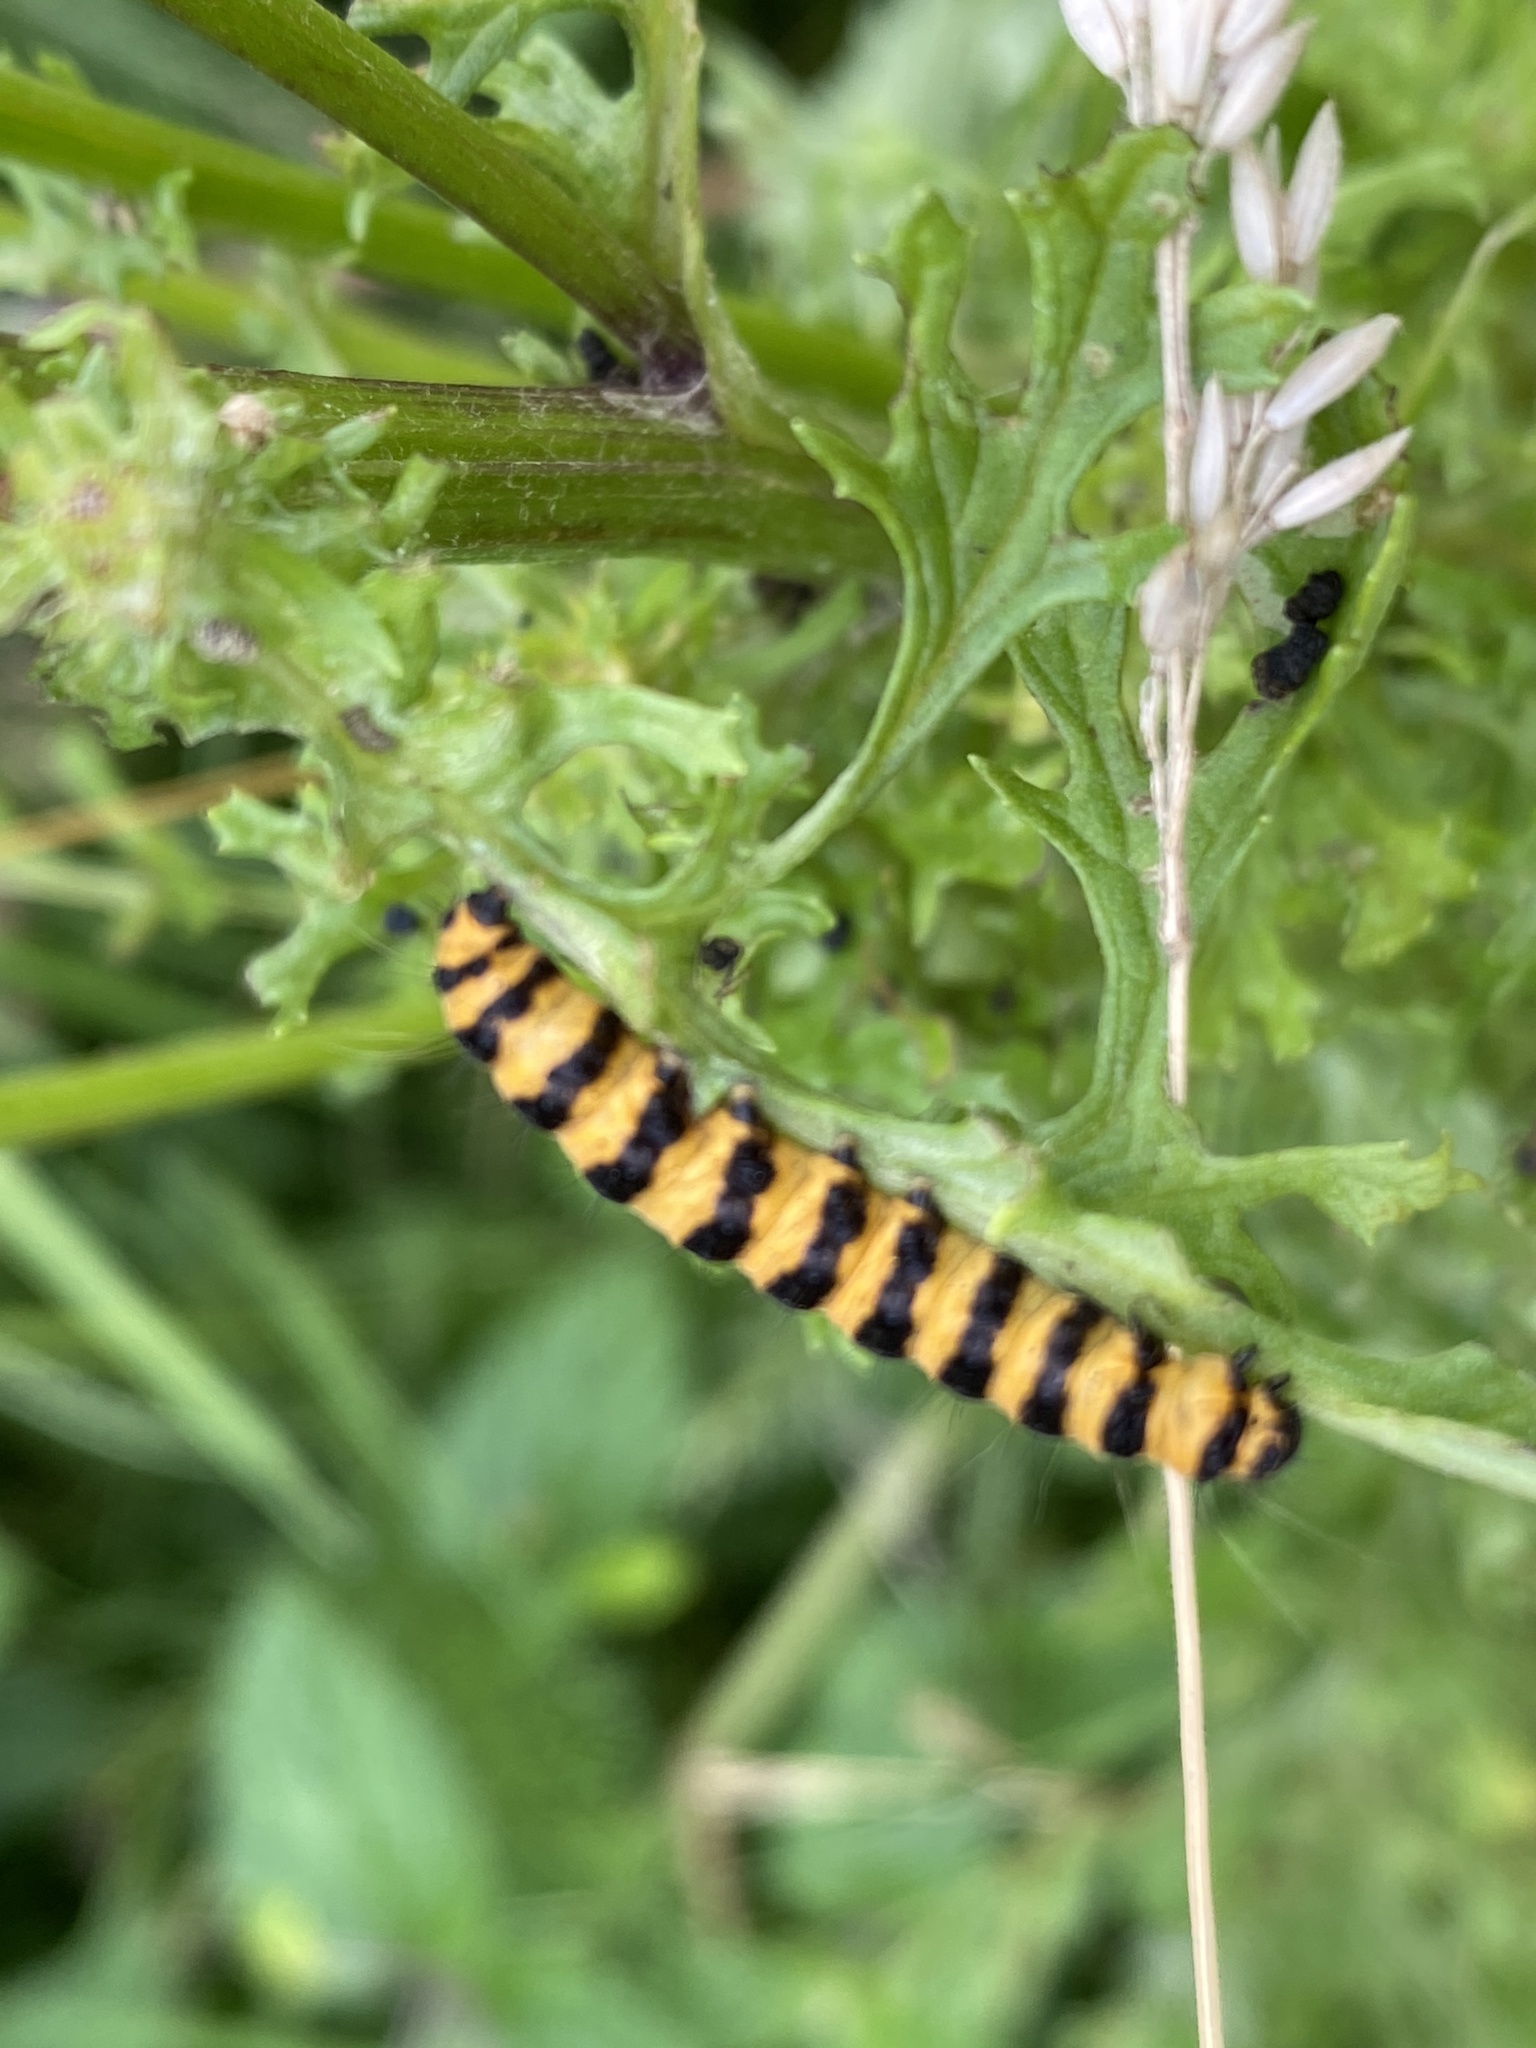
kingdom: Animalia
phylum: Arthropoda
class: Insecta
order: Lepidoptera
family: Erebidae
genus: Tyria
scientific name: Tyria jacobaeae
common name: Cinnabar
